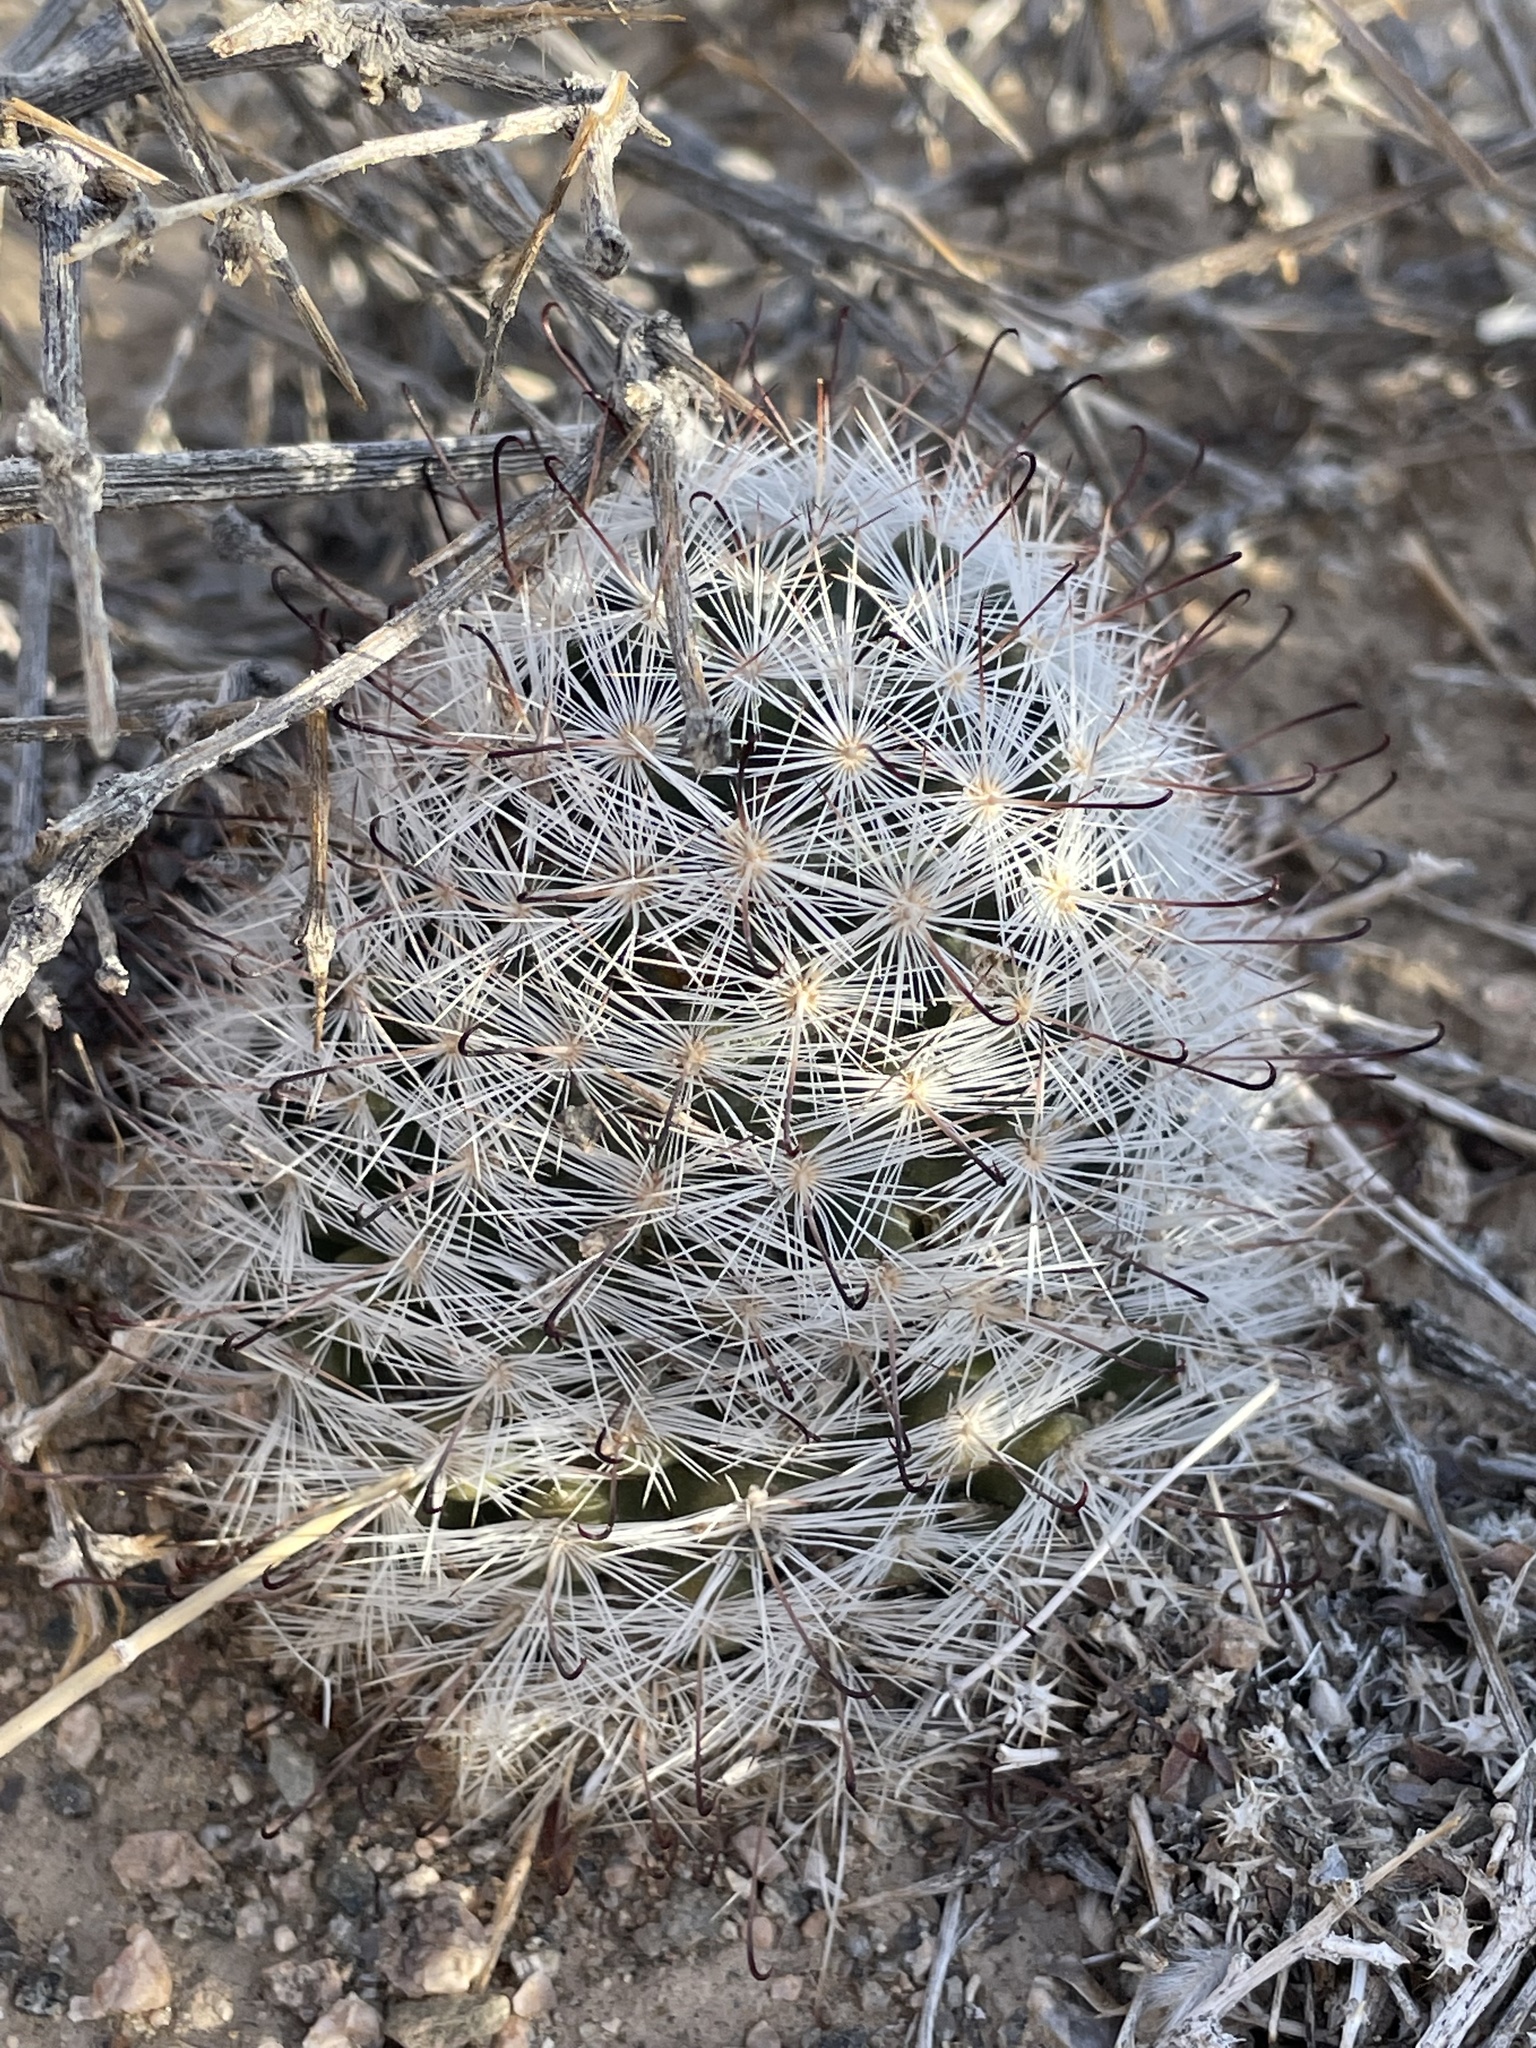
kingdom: Plantae
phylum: Tracheophyta
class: Magnoliopsida
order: Caryophyllales
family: Cactaceae
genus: Cochemiea
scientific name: Cochemiea tetrancistra
